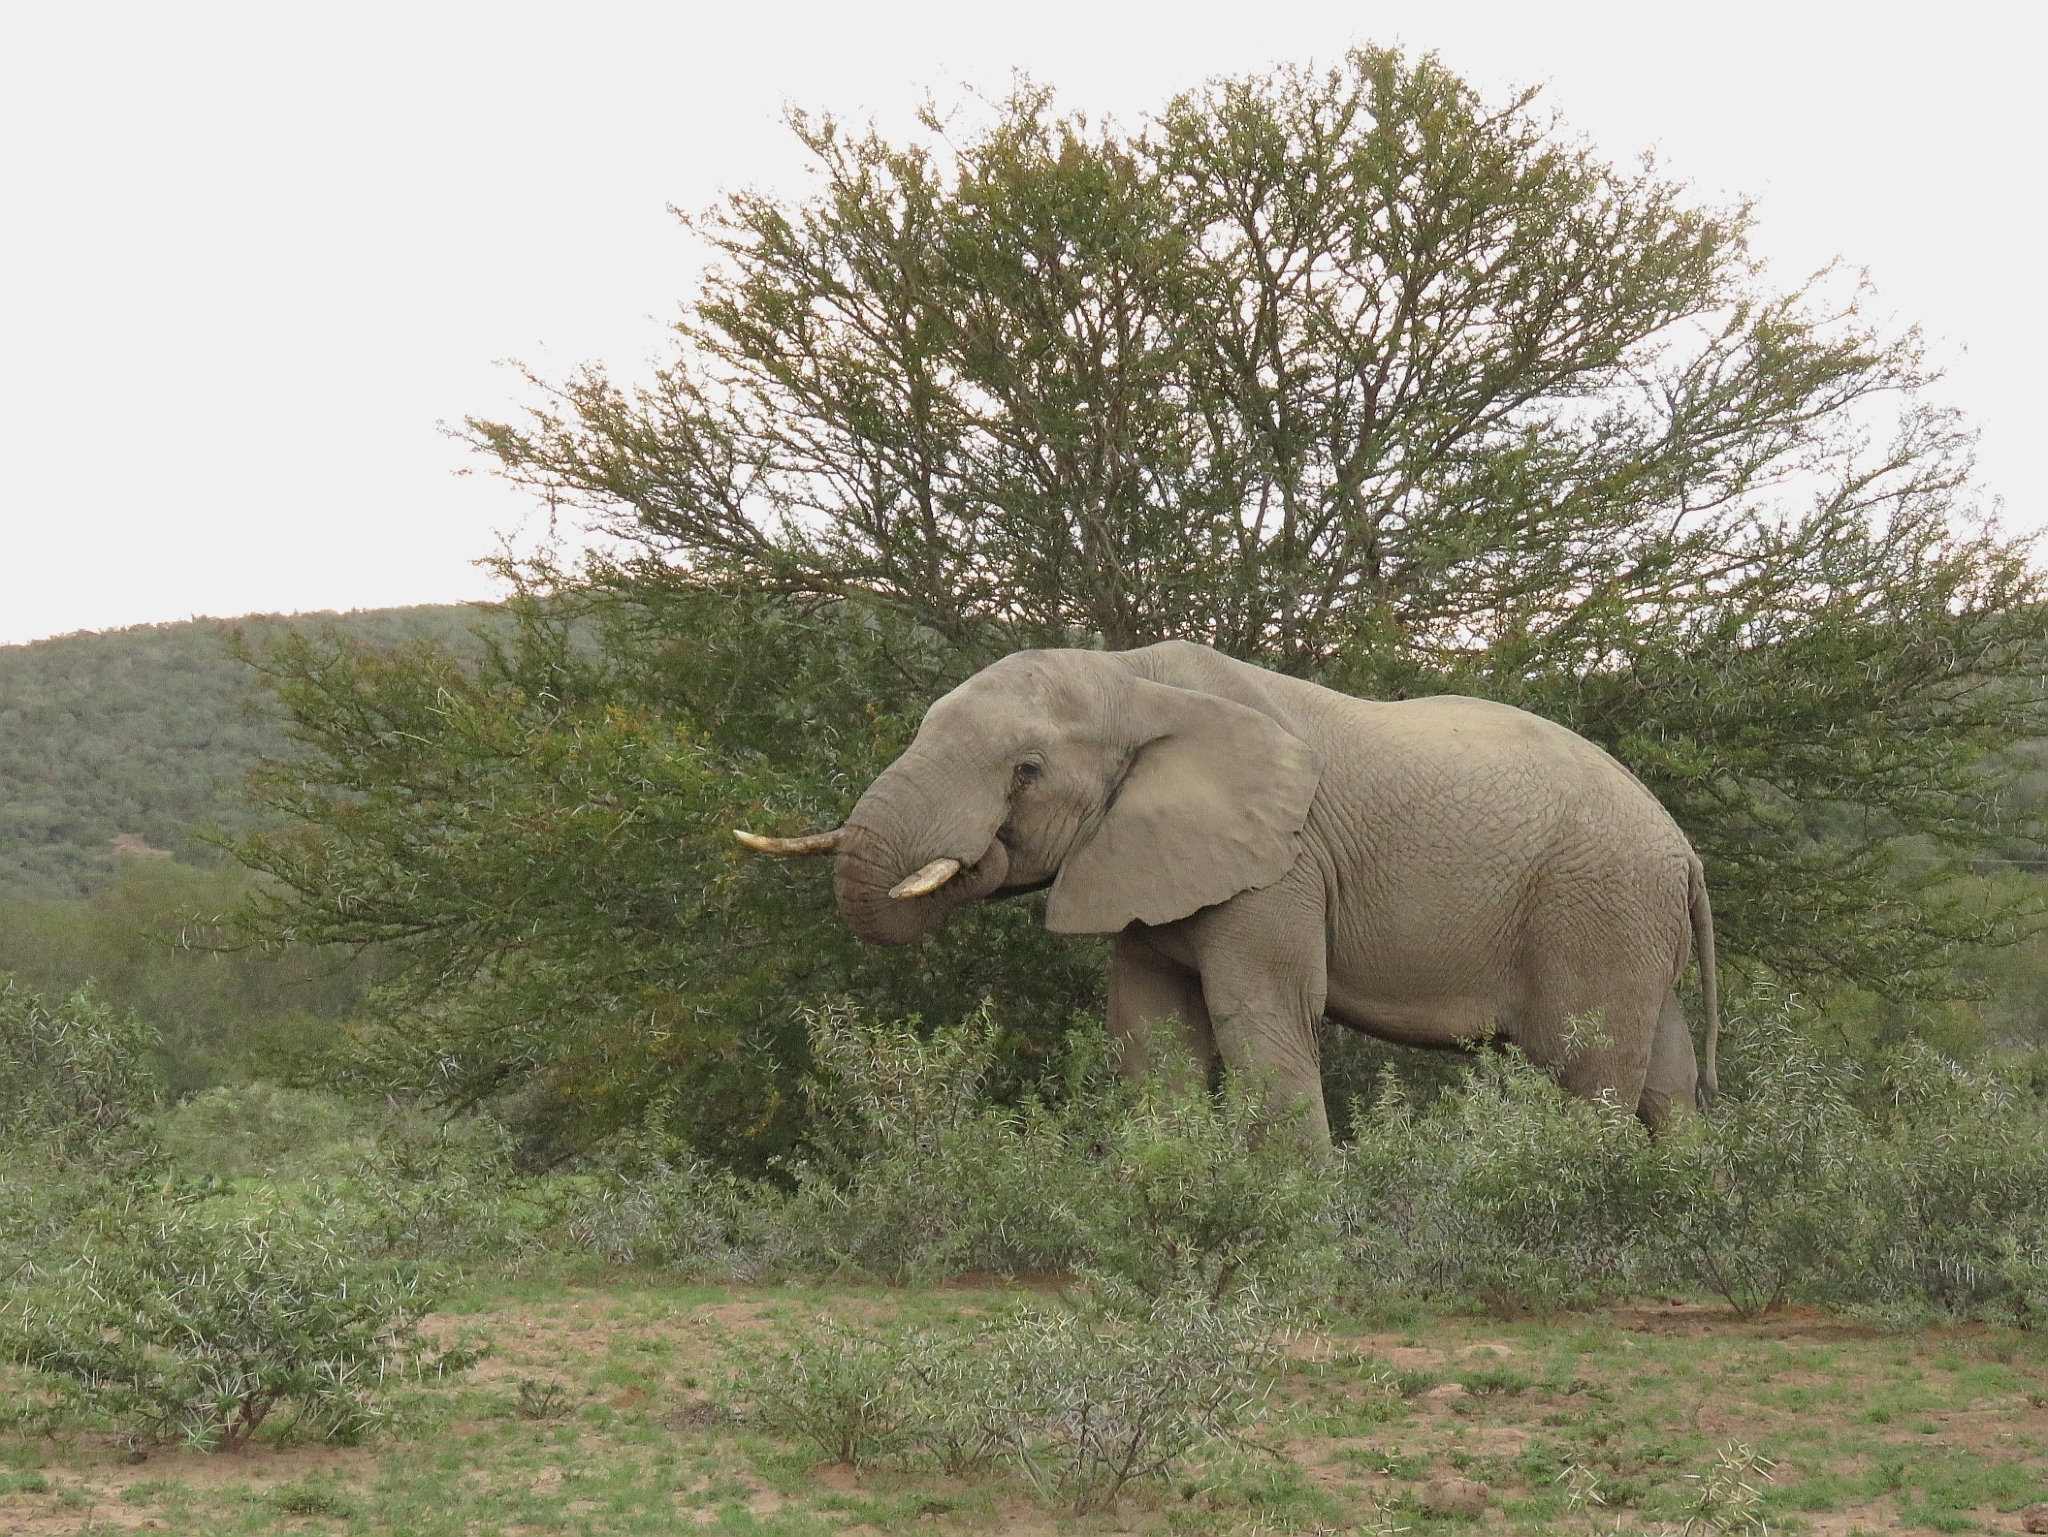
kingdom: Animalia
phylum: Chordata
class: Mammalia
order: Proboscidea
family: Elephantidae
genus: Loxodonta
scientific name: Loxodonta africana
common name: African elephant
